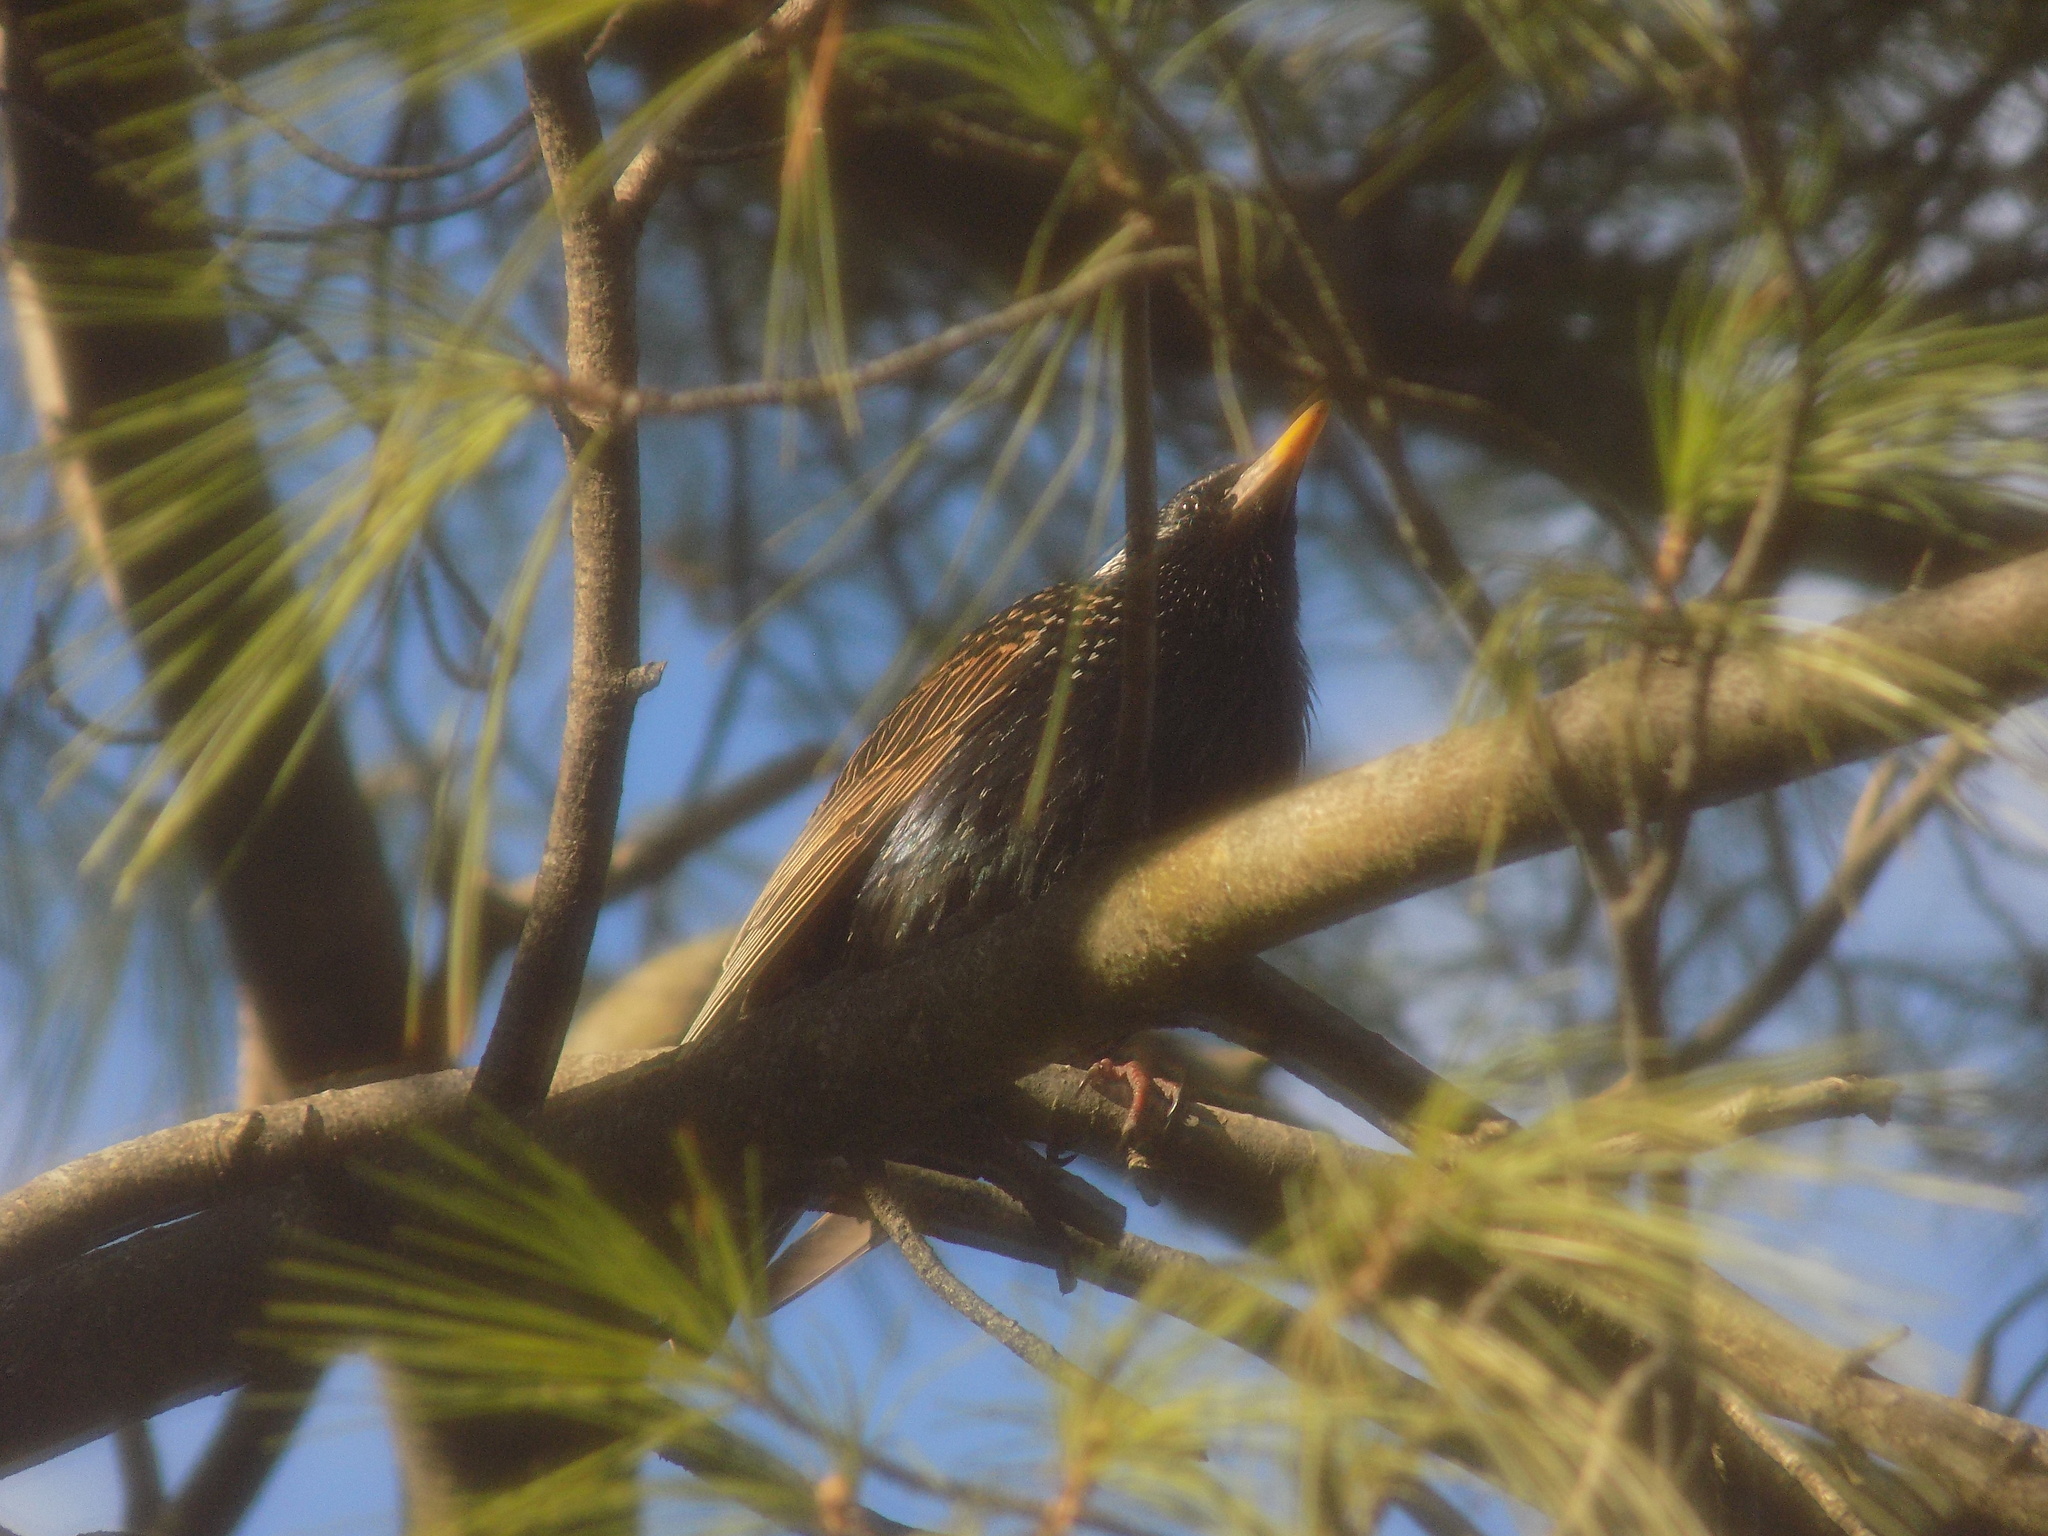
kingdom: Animalia
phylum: Chordata
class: Aves
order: Passeriformes
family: Sturnidae
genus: Sturnus
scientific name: Sturnus vulgaris
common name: Common starling
